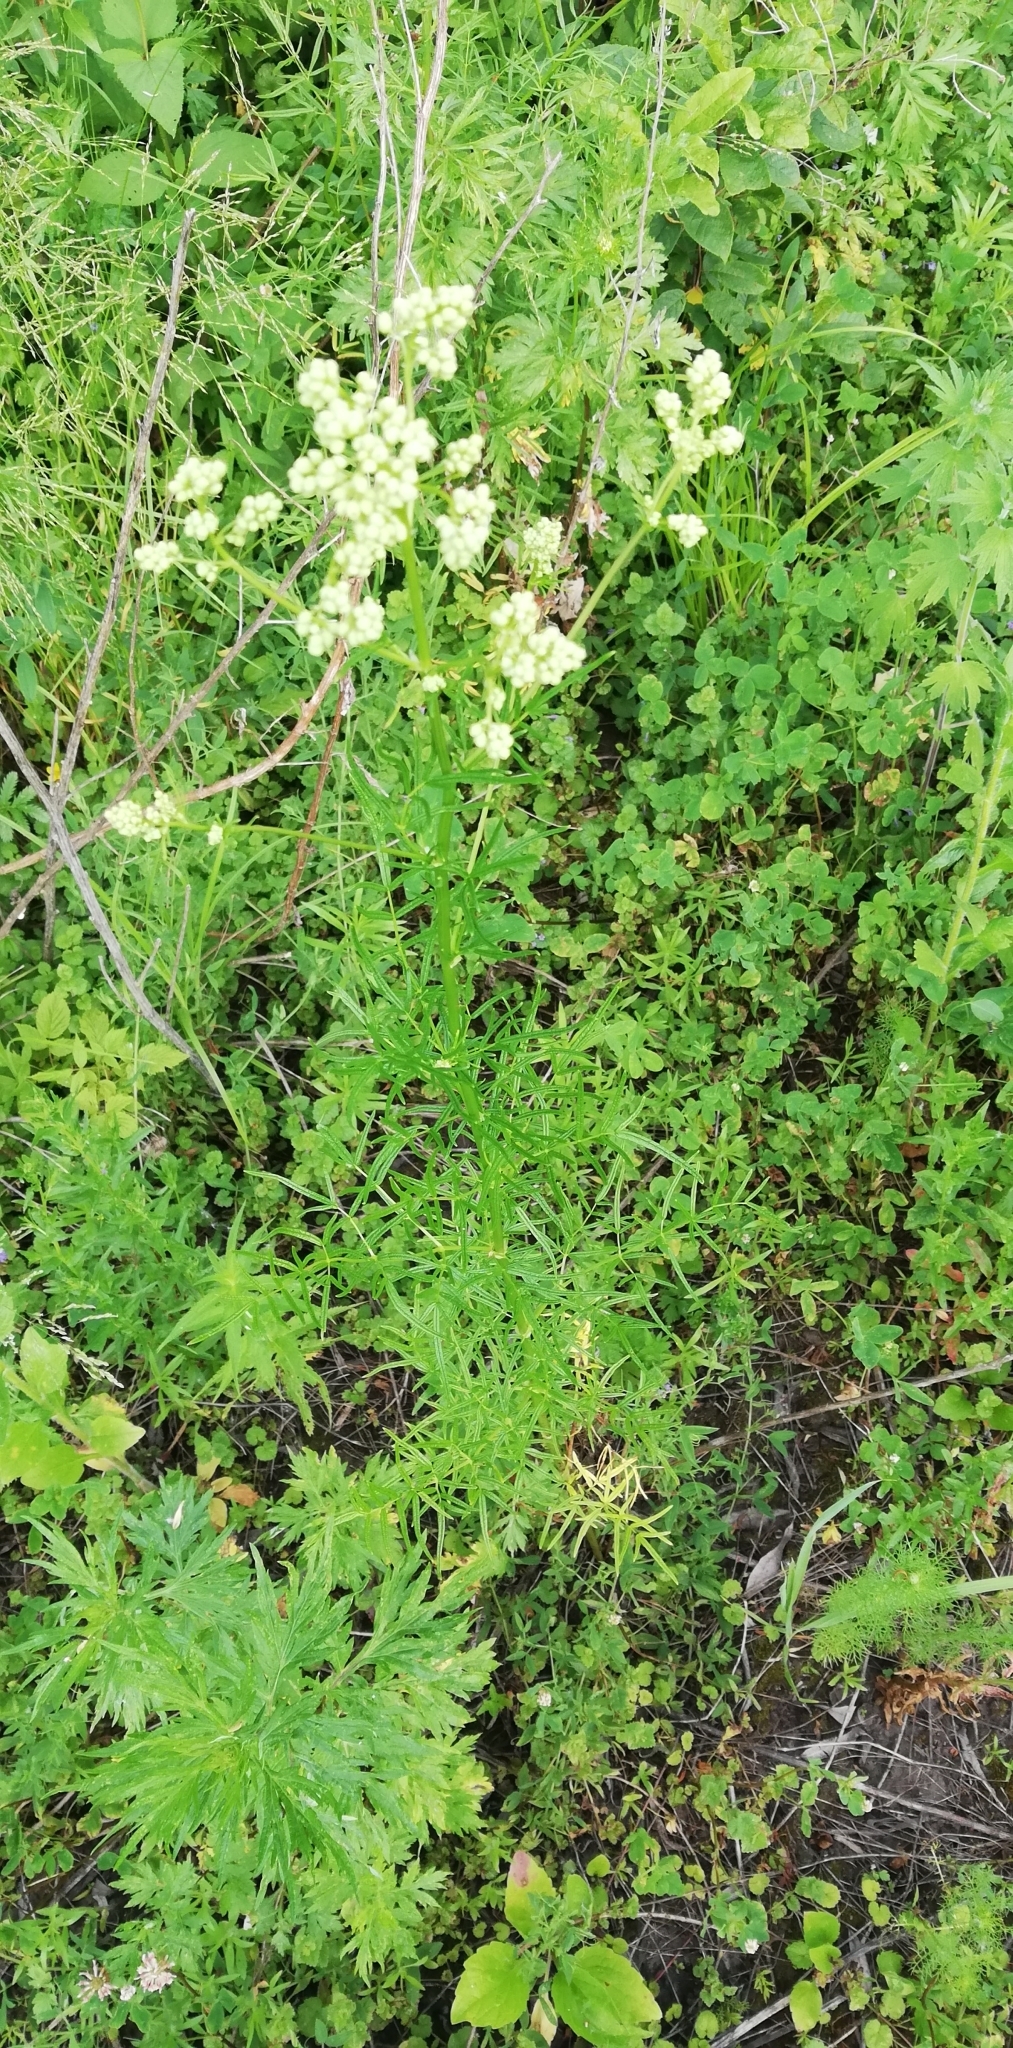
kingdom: Plantae
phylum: Tracheophyta
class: Magnoliopsida
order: Ranunculales
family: Ranunculaceae
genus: Thalictrum
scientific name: Thalictrum lucidum
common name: Shining meadow-rue
